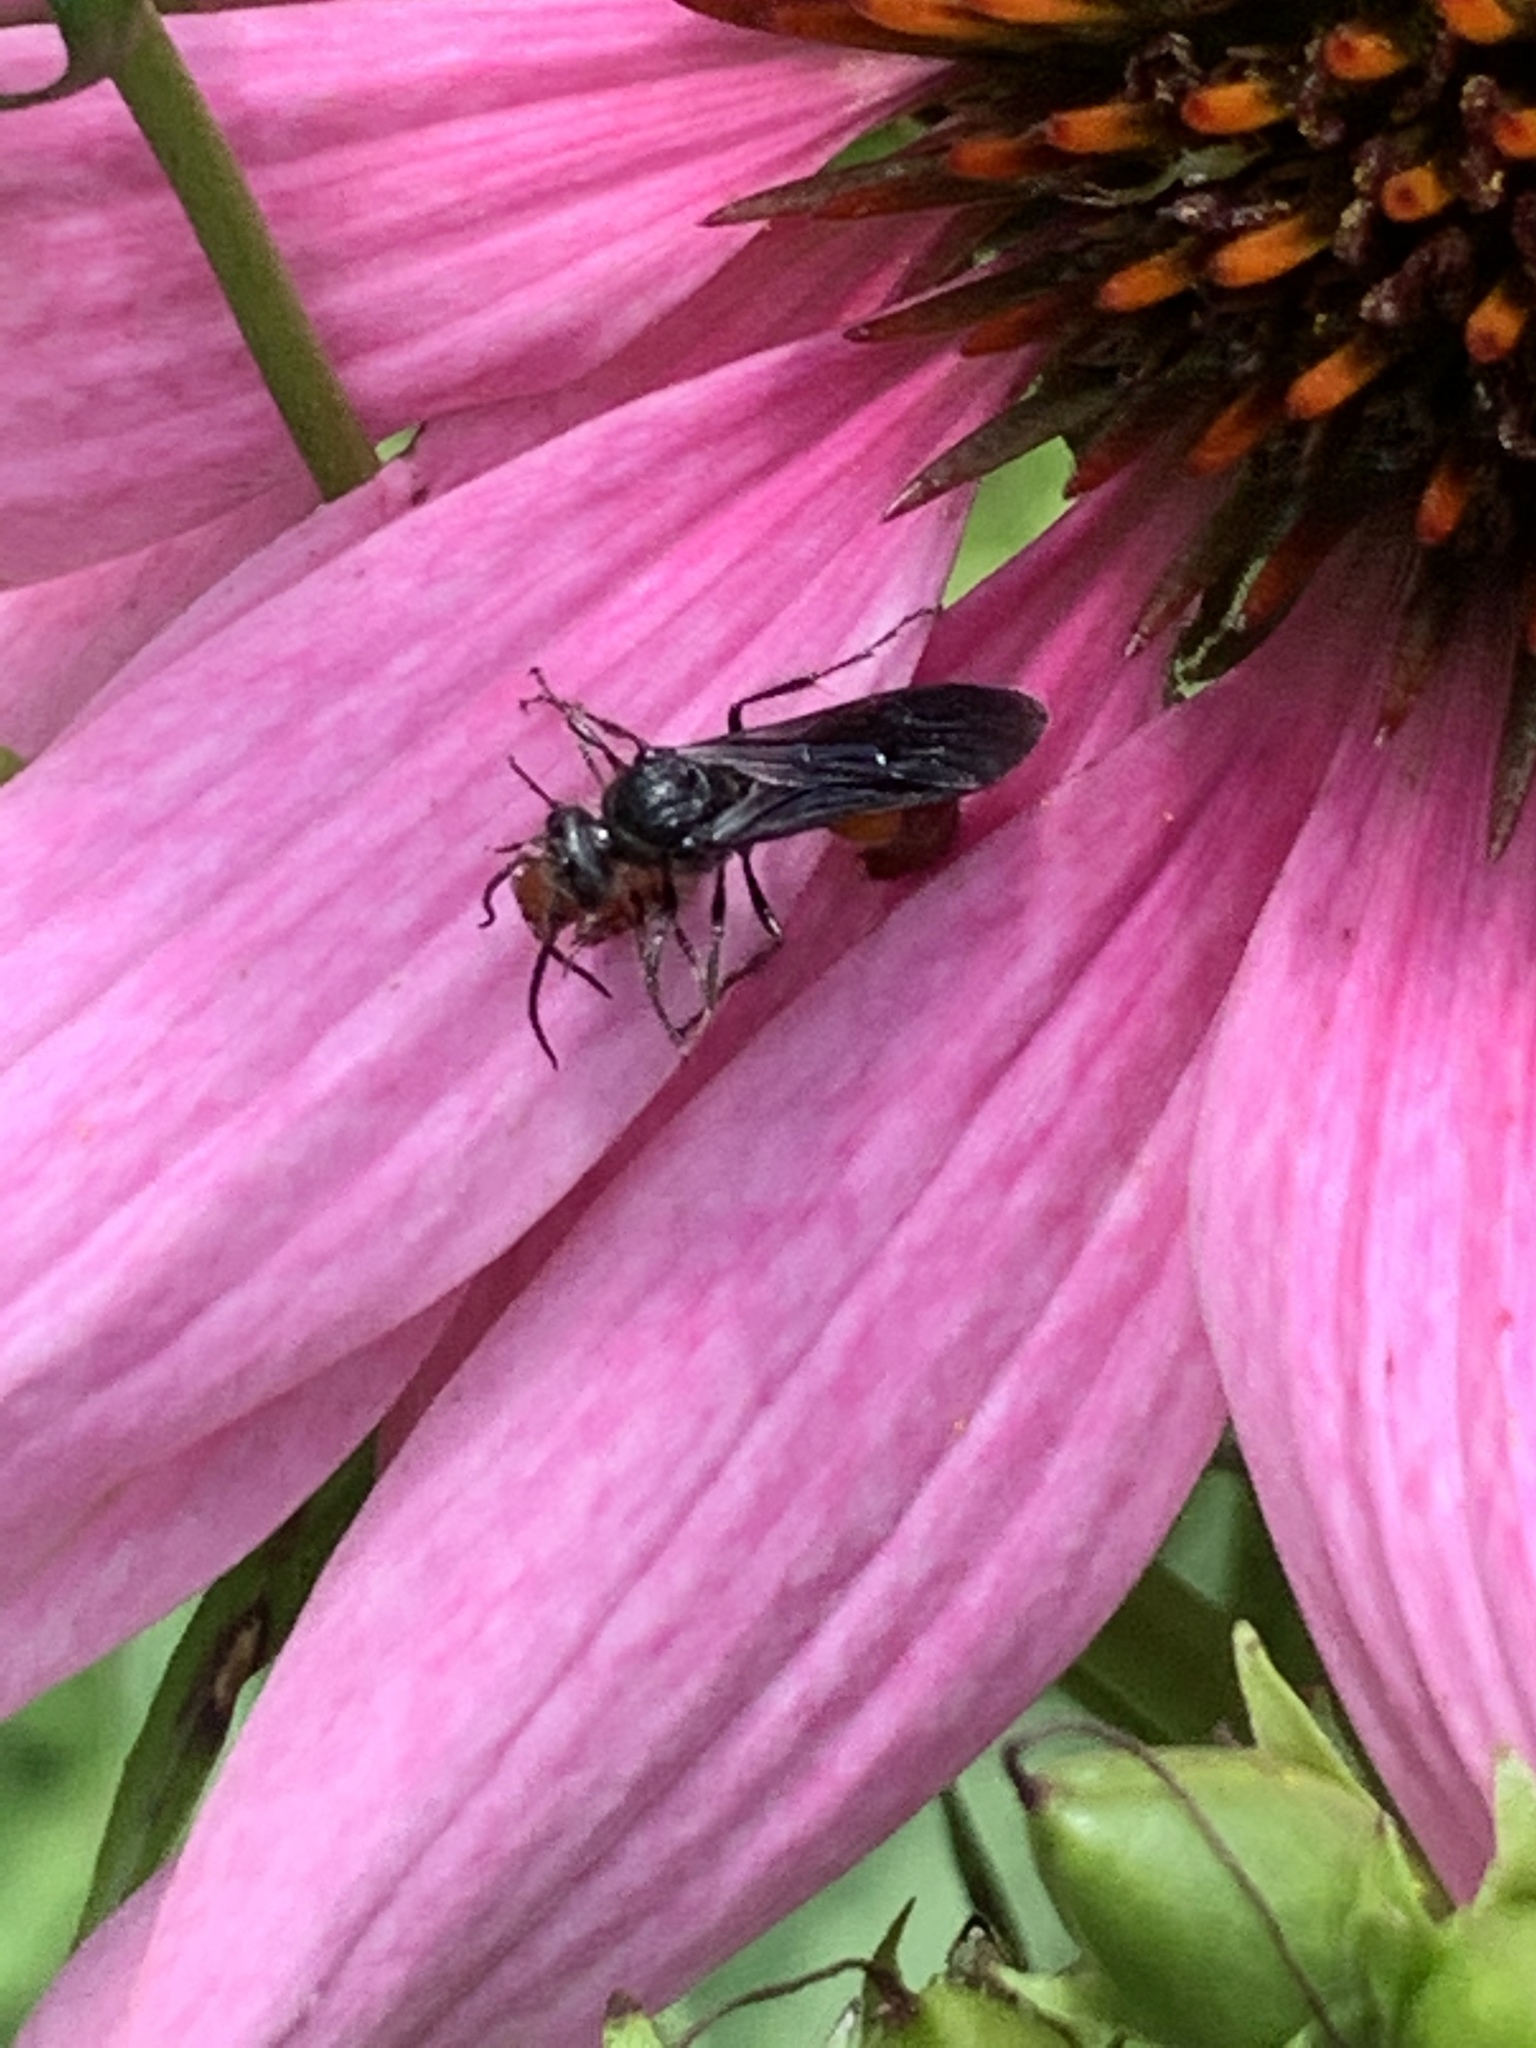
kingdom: Animalia
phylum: Arthropoda
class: Insecta
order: Hymenoptera
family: Mutillidae
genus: Timulla
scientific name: Timulla
